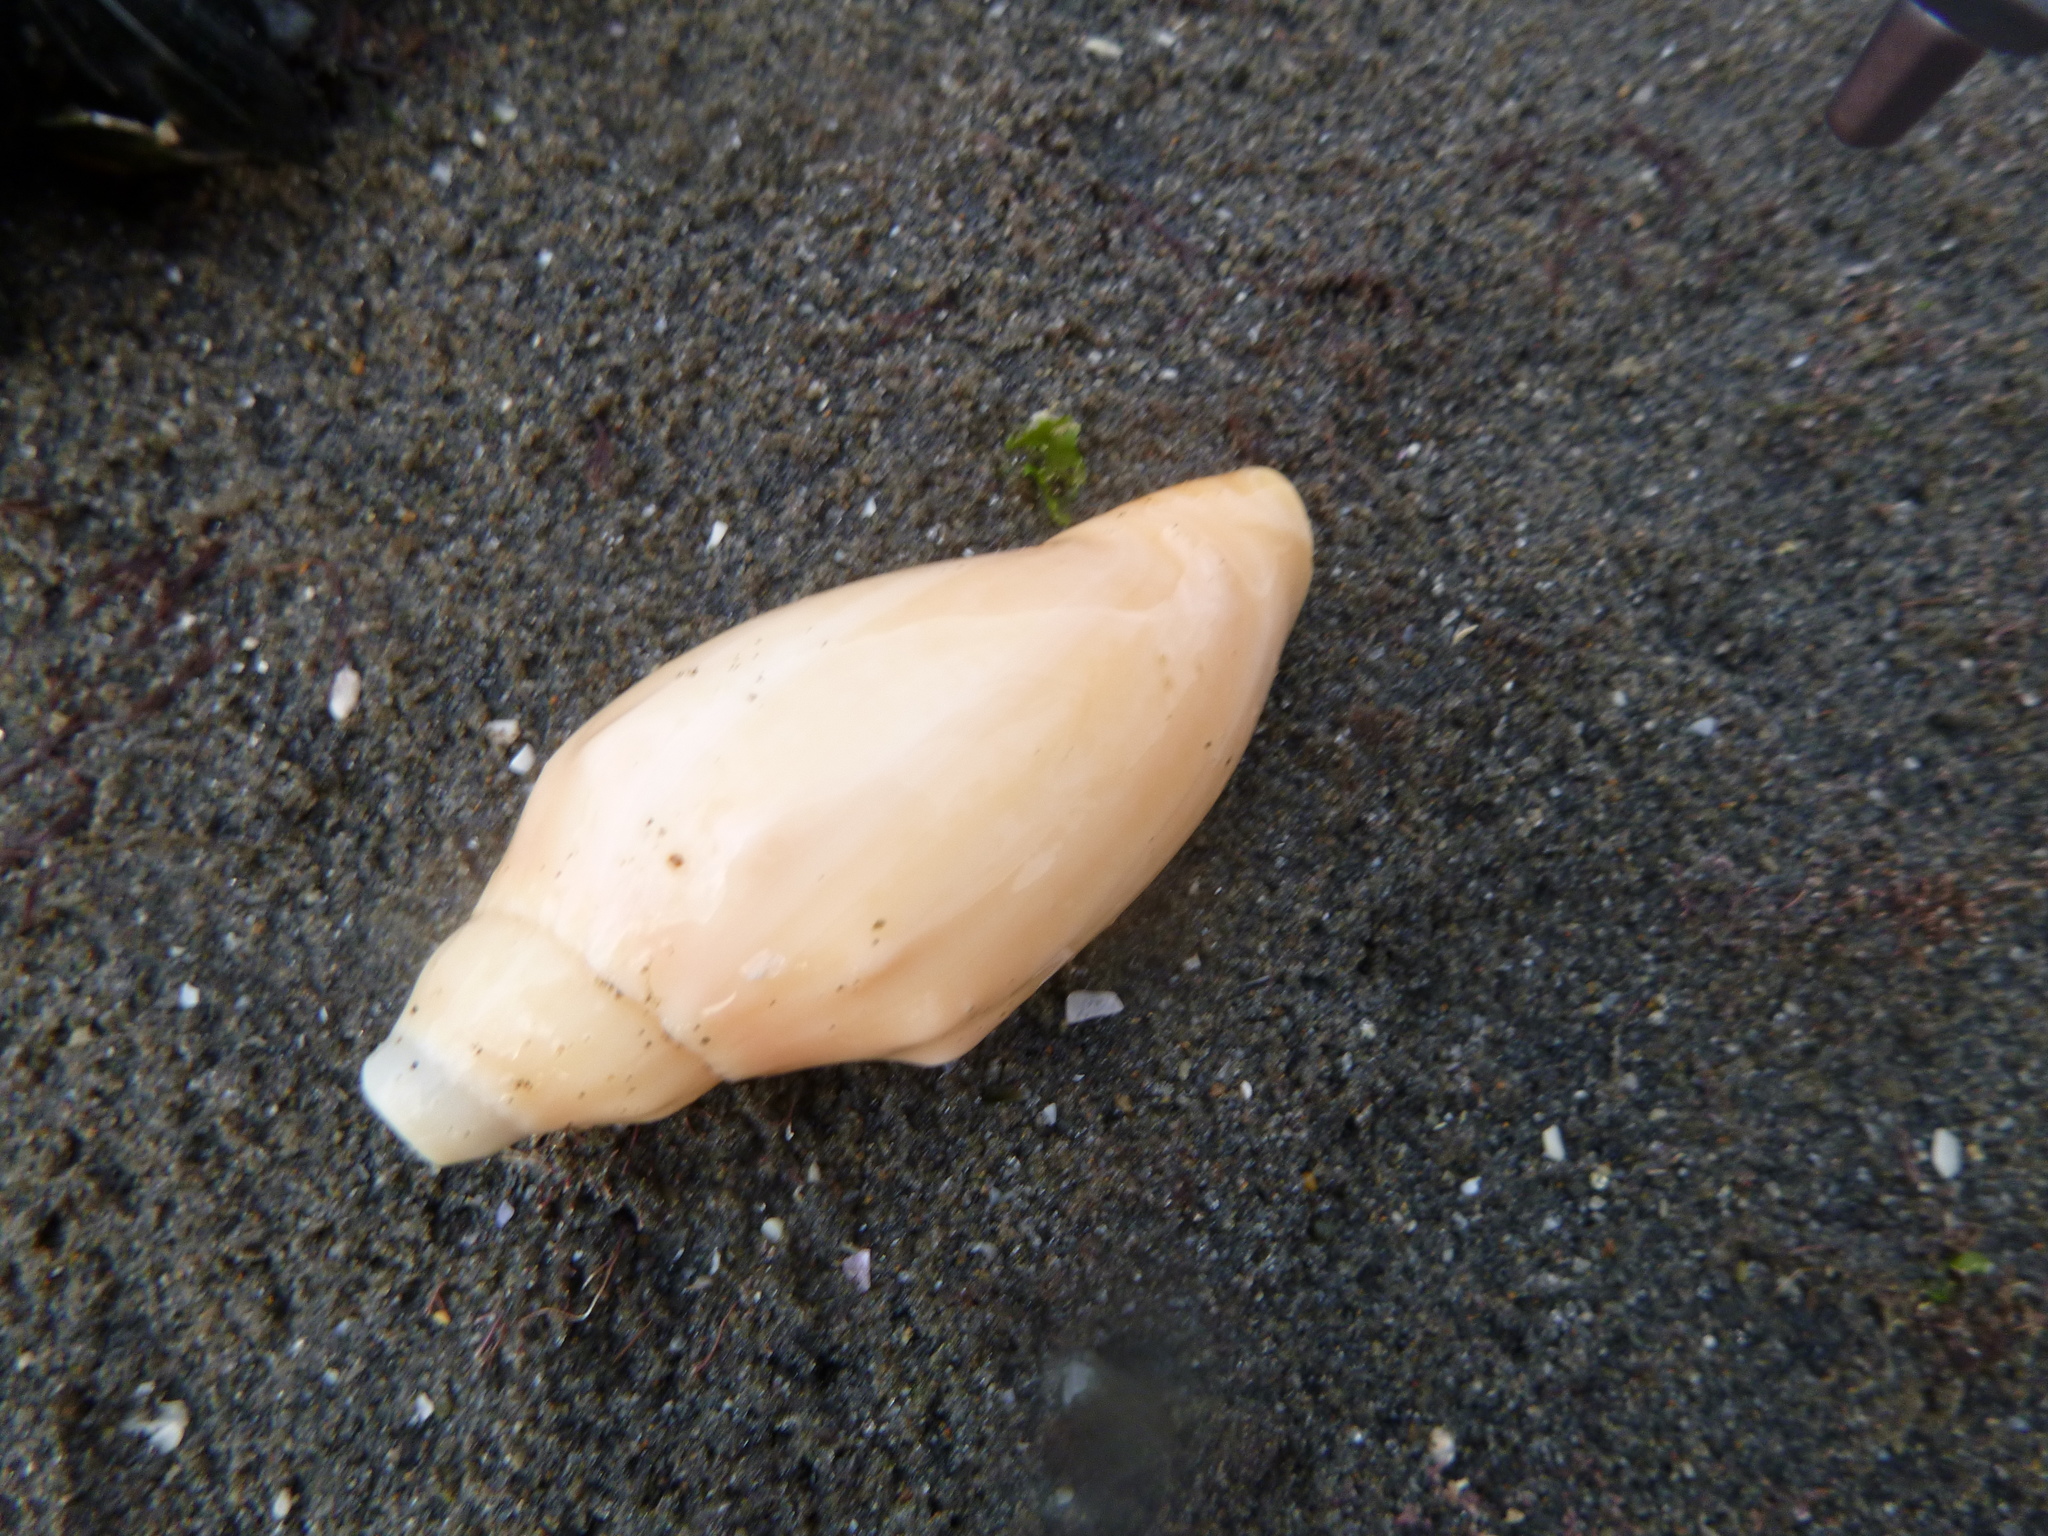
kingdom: Animalia
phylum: Mollusca
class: Gastropoda
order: Neogastropoda
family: Volutidae
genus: Alcithoe
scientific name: Alcithoe arabica
